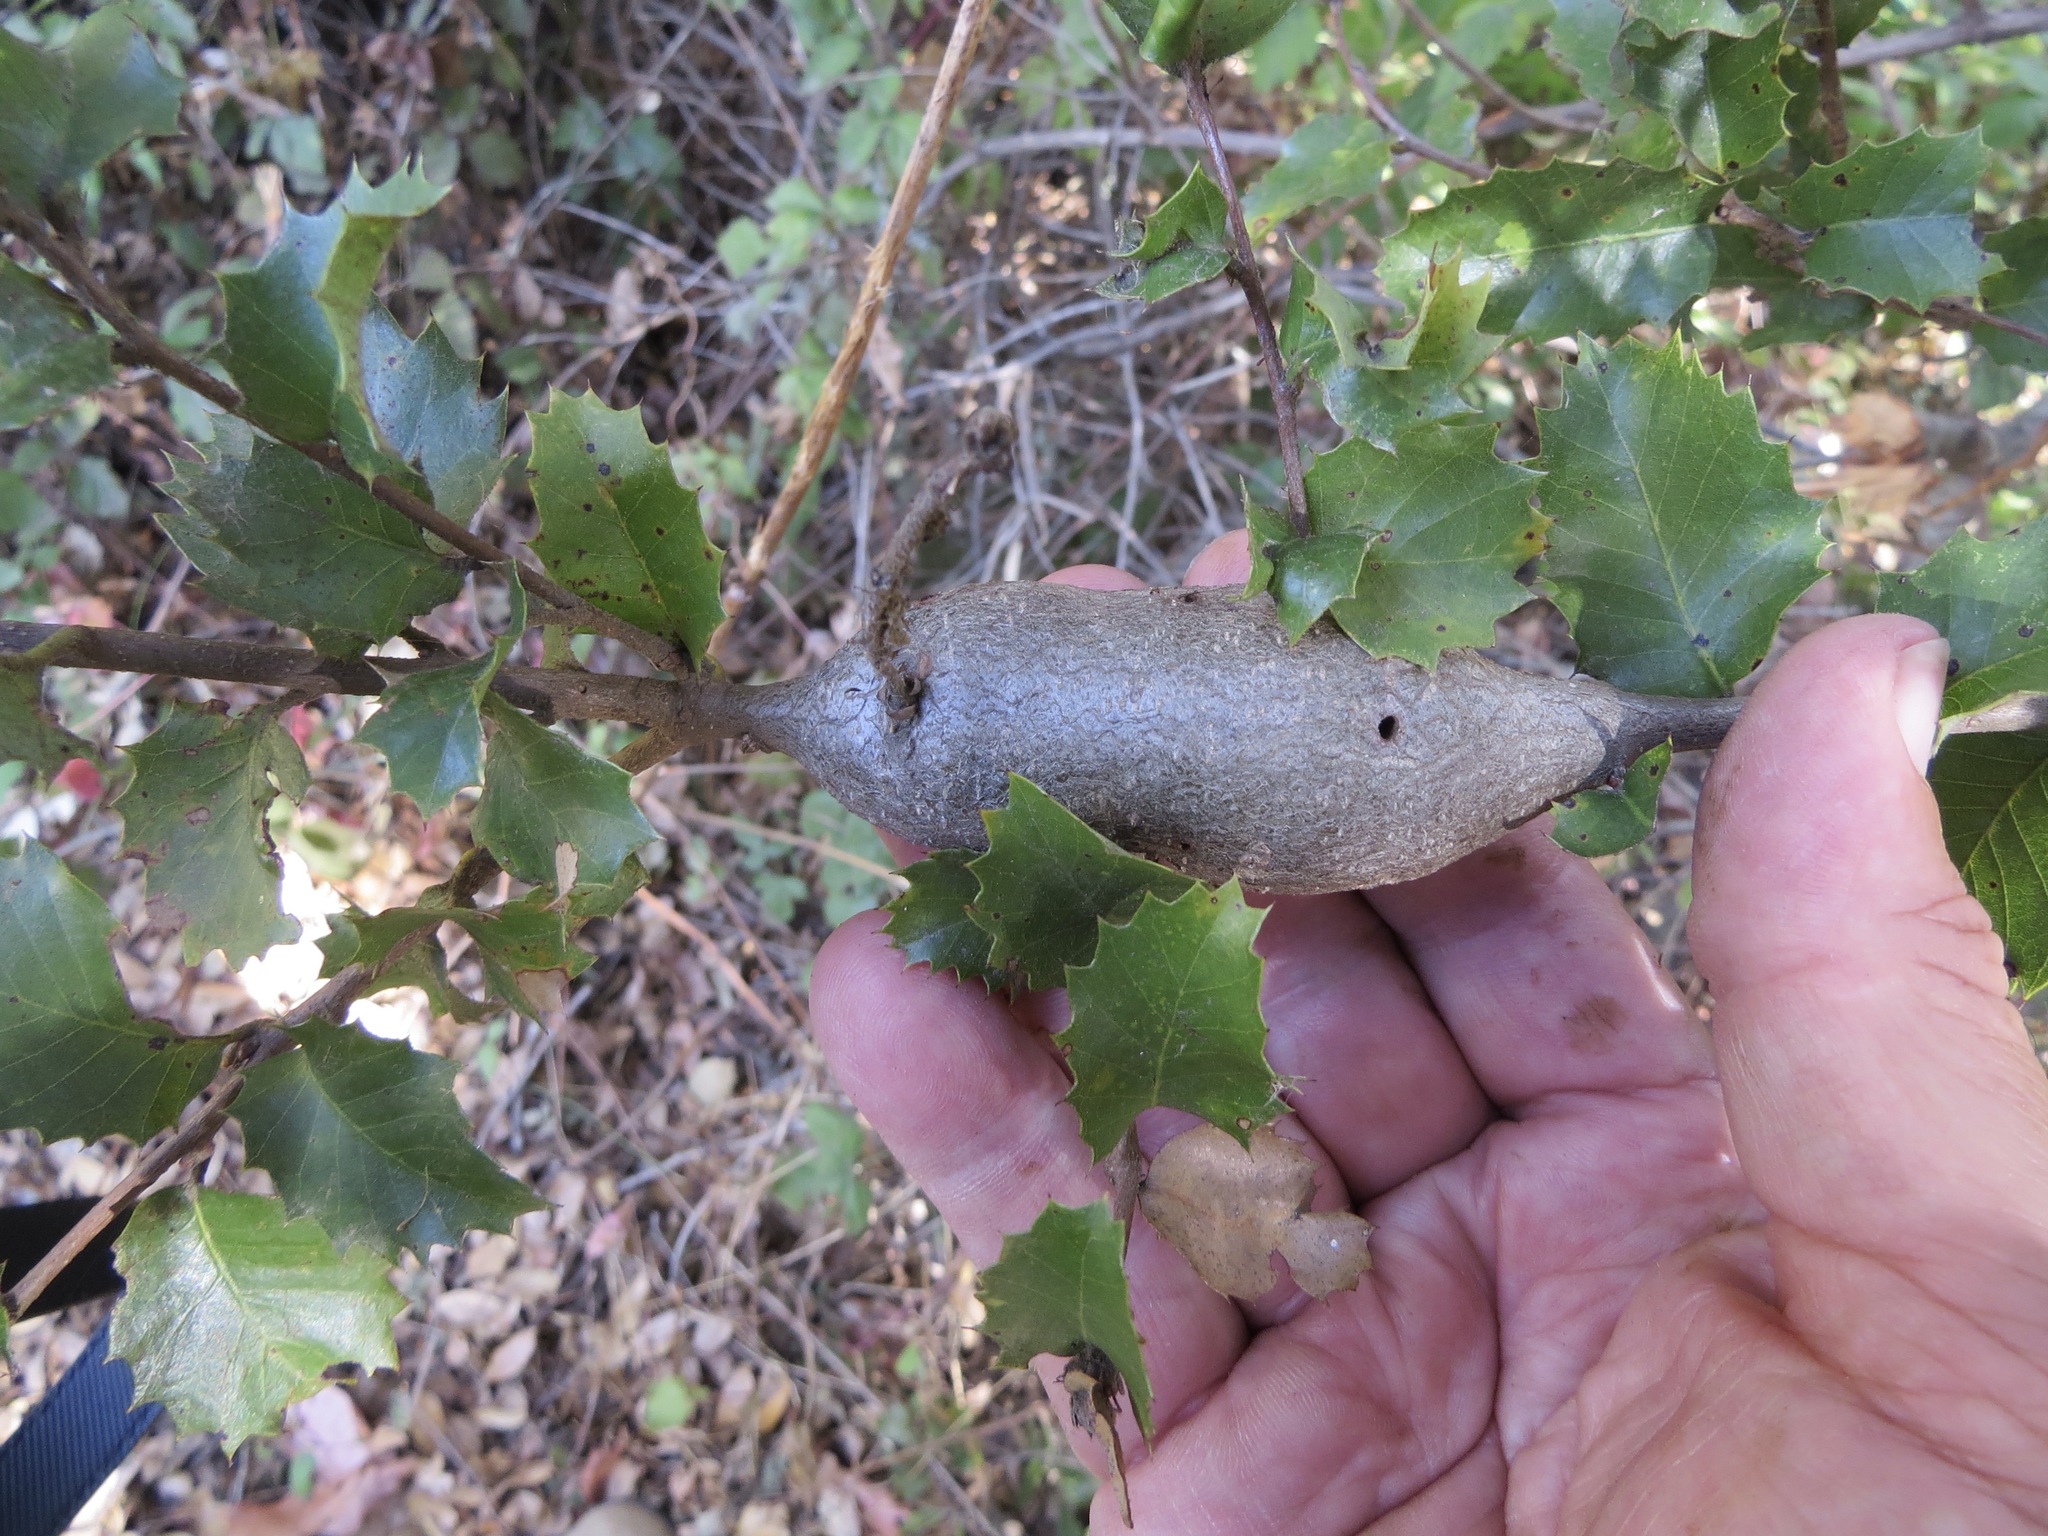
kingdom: Animalia
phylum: Arthropoda
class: Insecta
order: Hymenoptera
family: Cynipidae
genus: Disholcaspis
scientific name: Disholcaspis spectabilis
